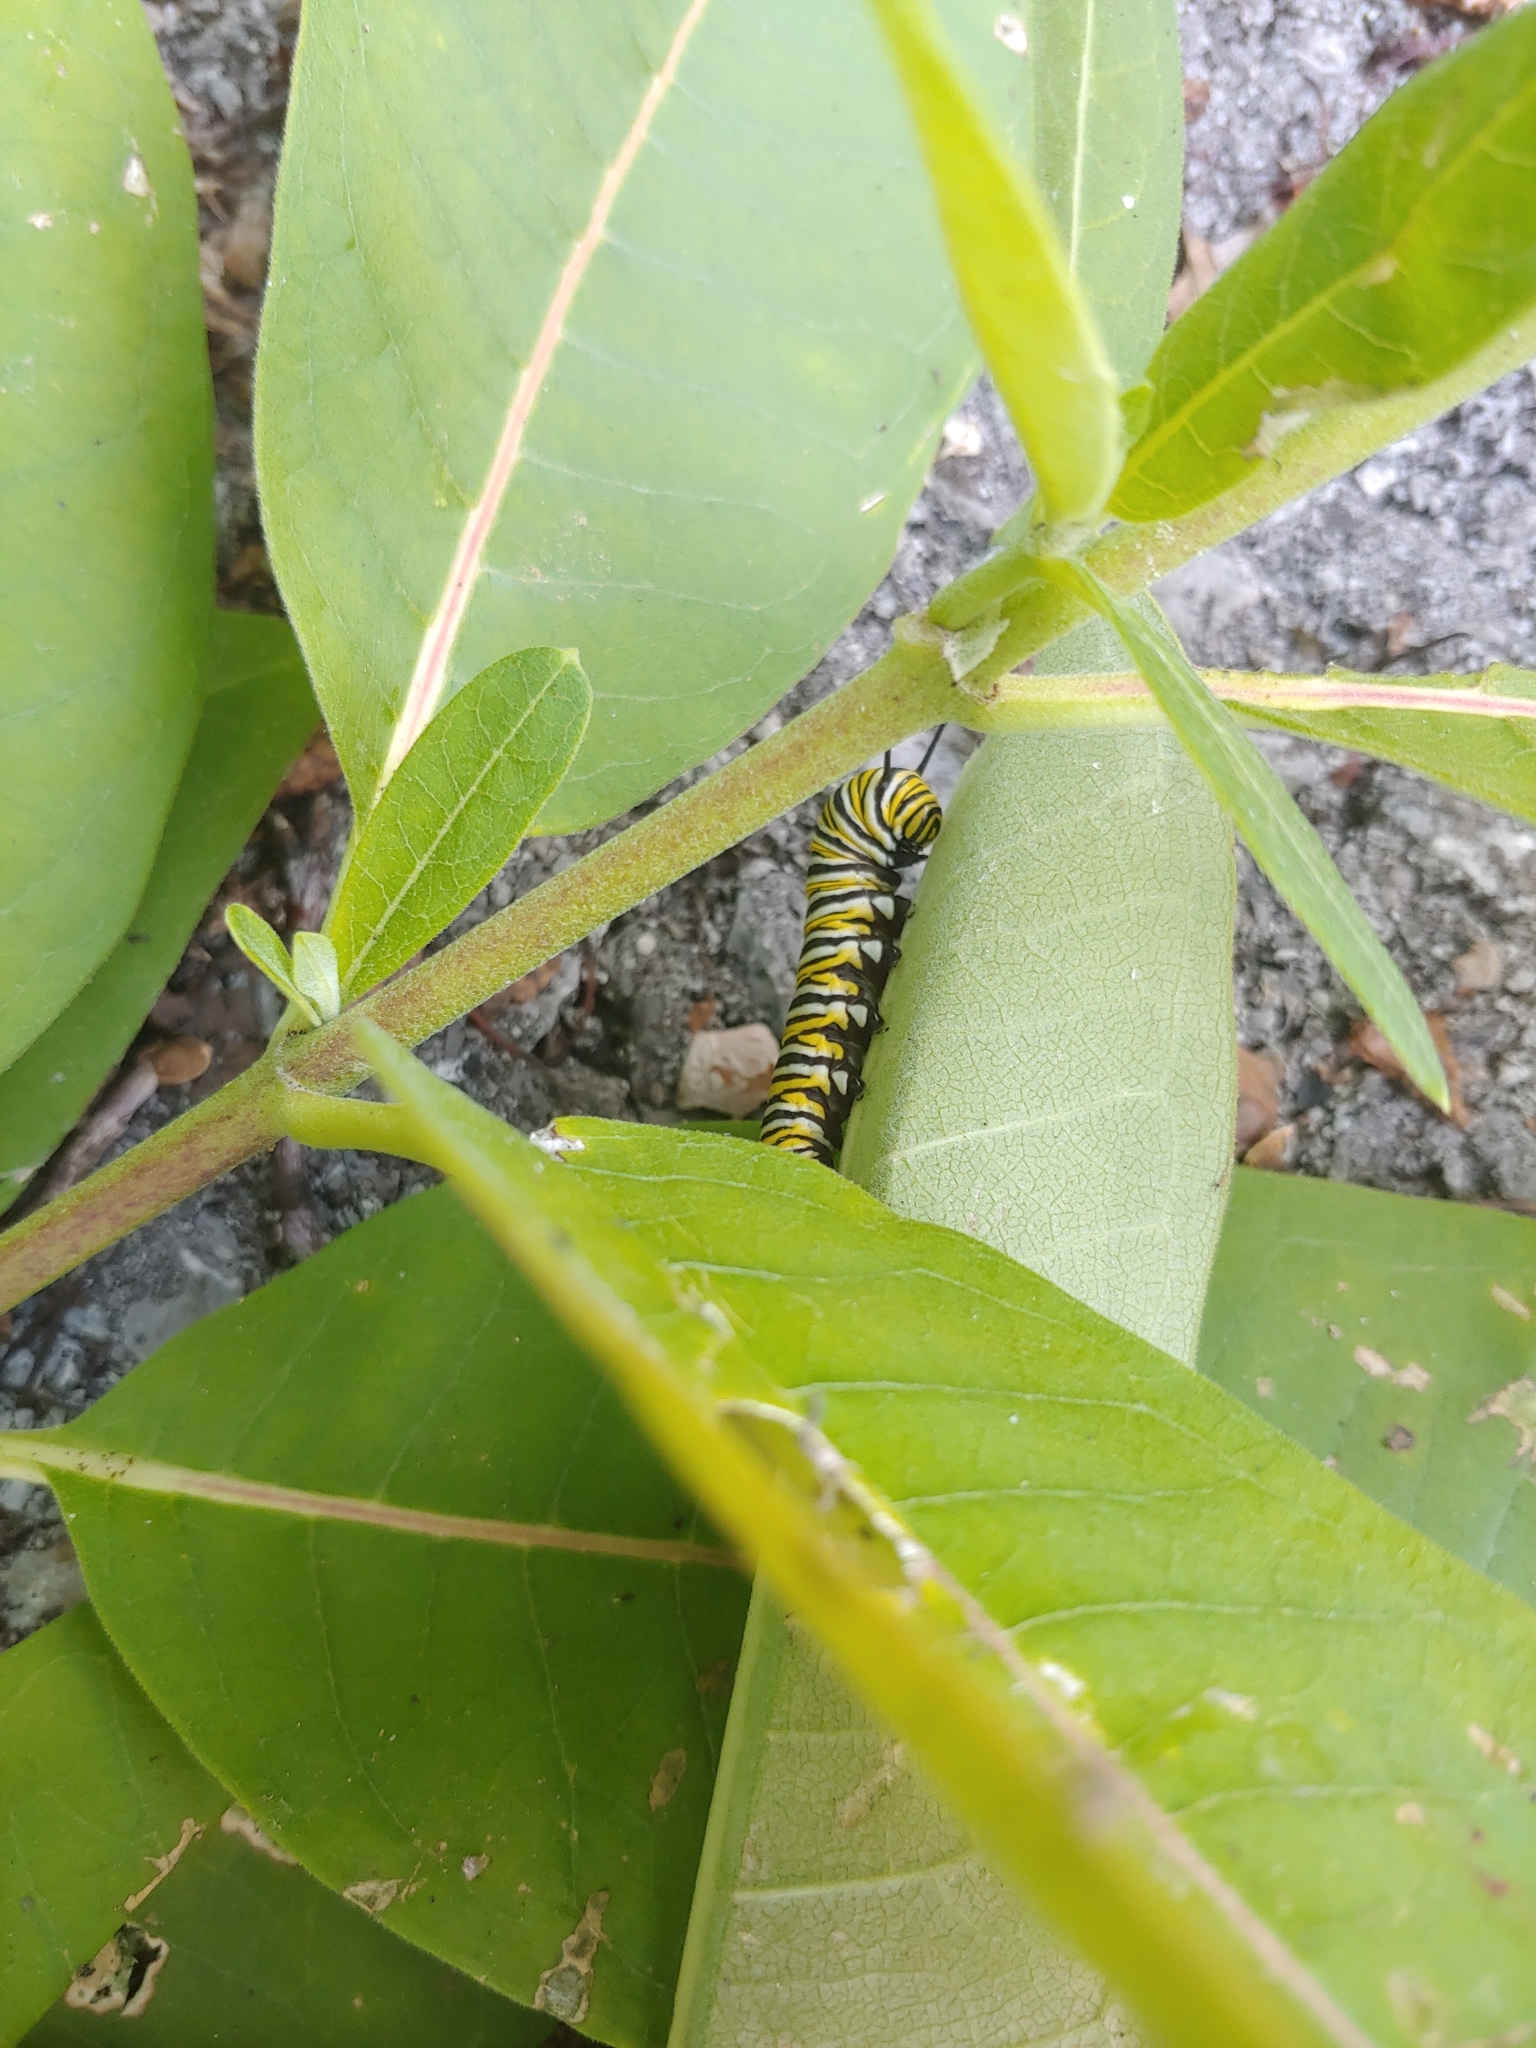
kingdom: Animalia
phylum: Arthropoda
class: Insecta
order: Lepidoptera
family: Nymphalidae
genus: Danaus
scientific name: Danaus plexippus
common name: Monarch
